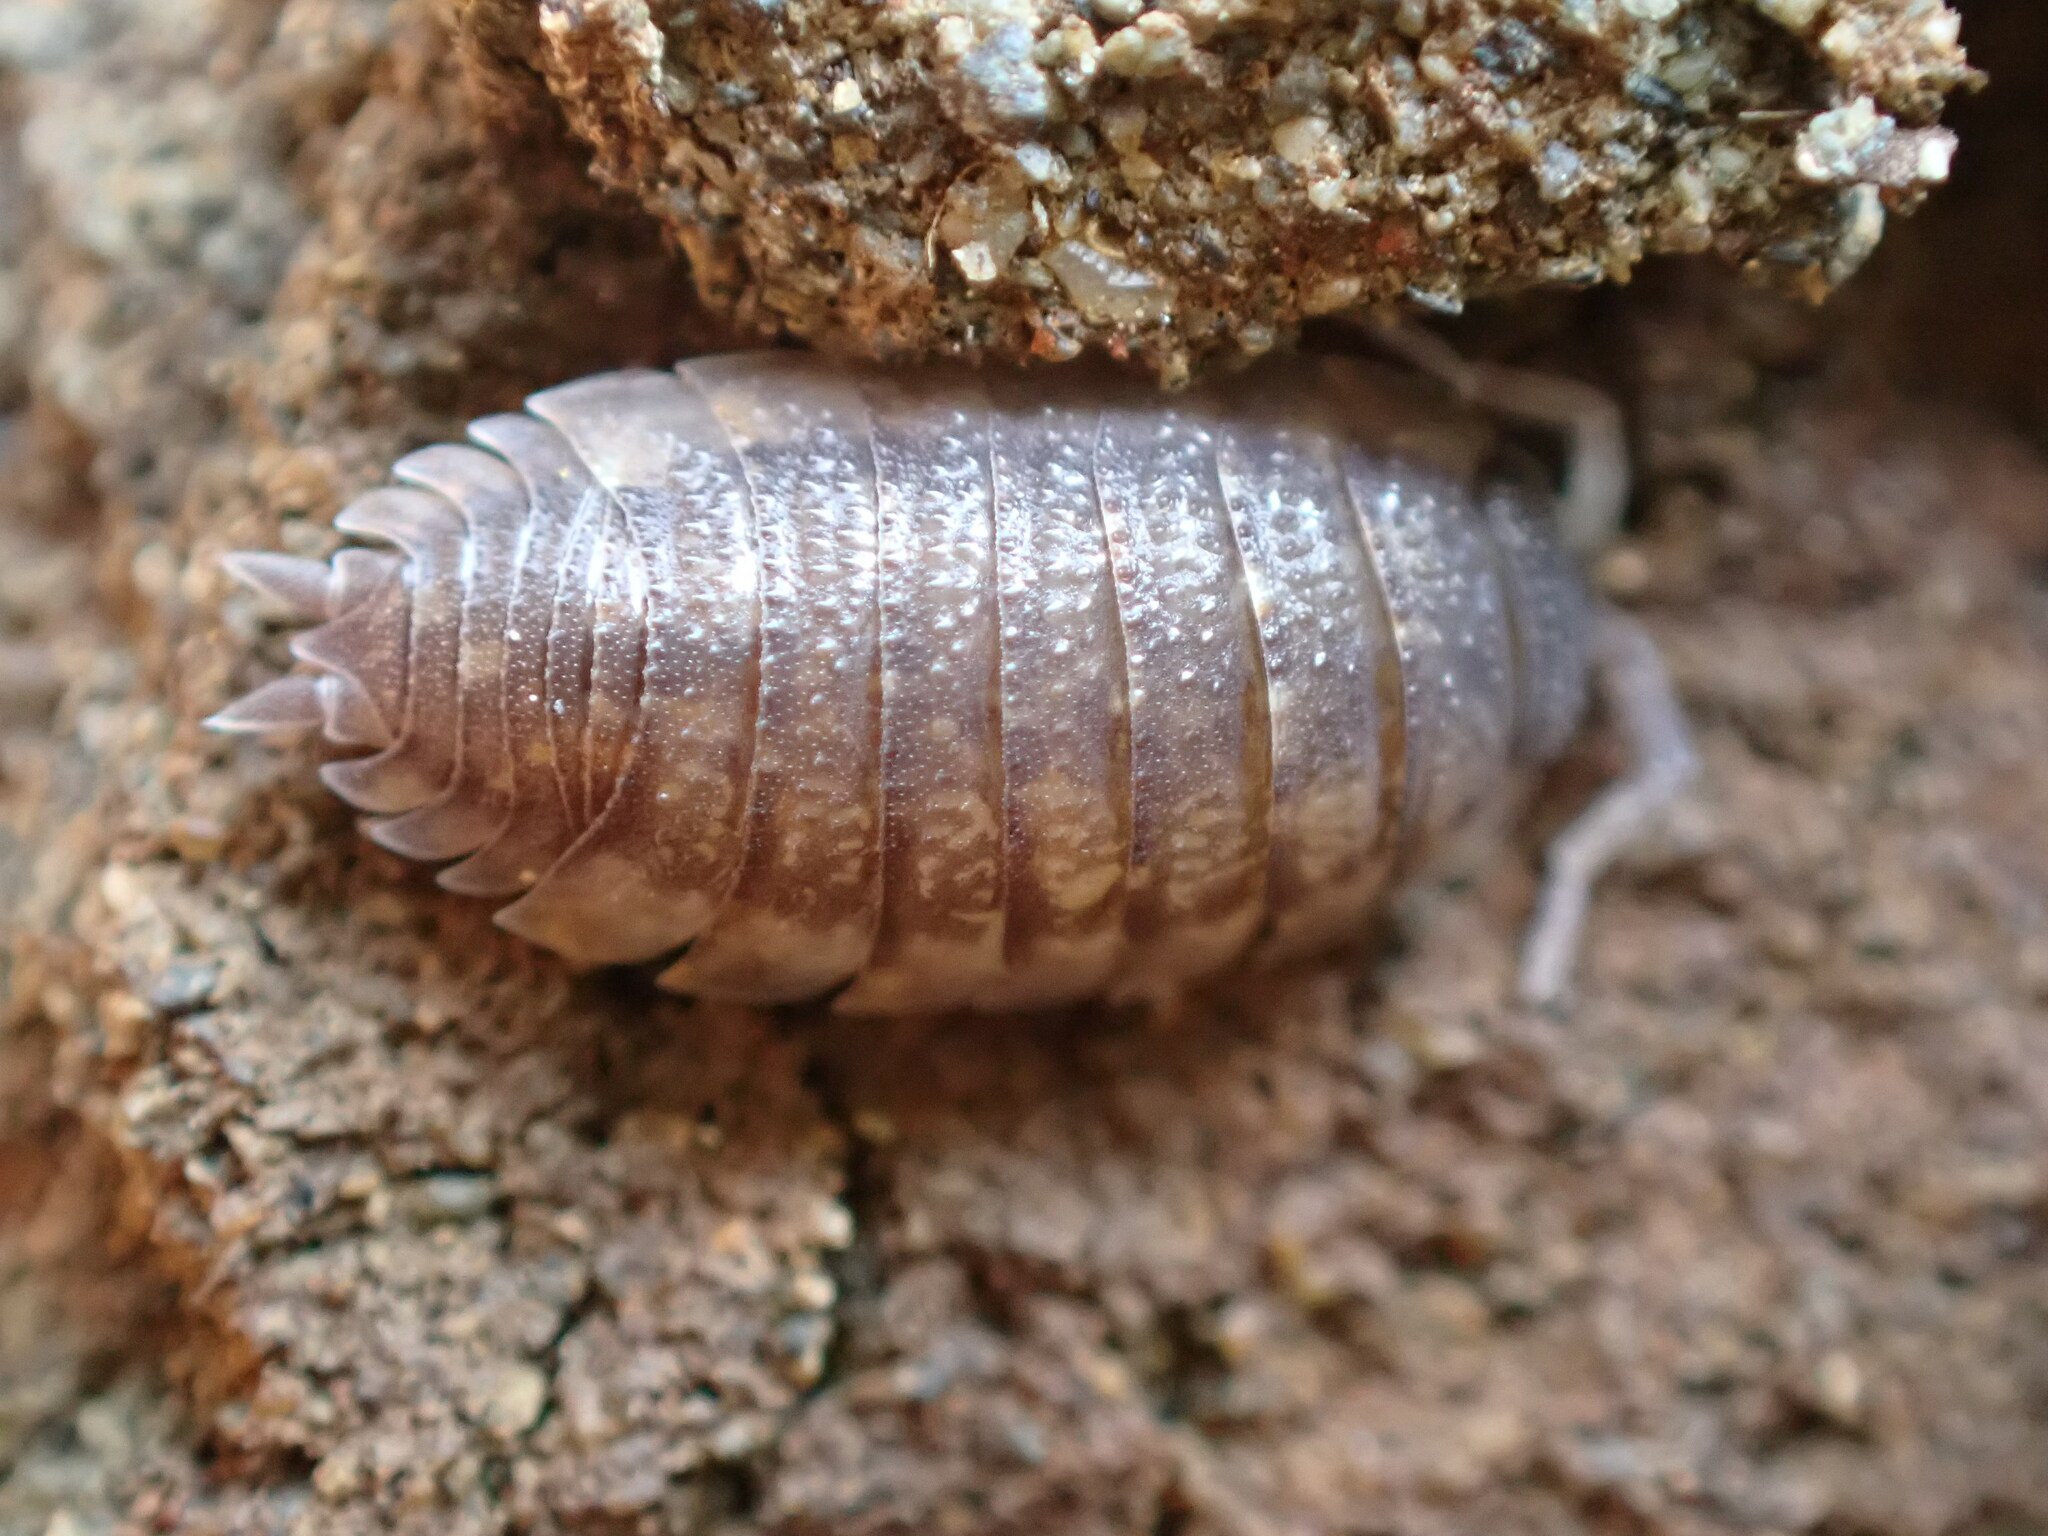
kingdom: Animalia
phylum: Arthropoda
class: Malacostraca
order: Isopoda
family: Porcellionidae
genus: Porcellio
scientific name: Porcellio scaber
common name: Common rough woodlouse
